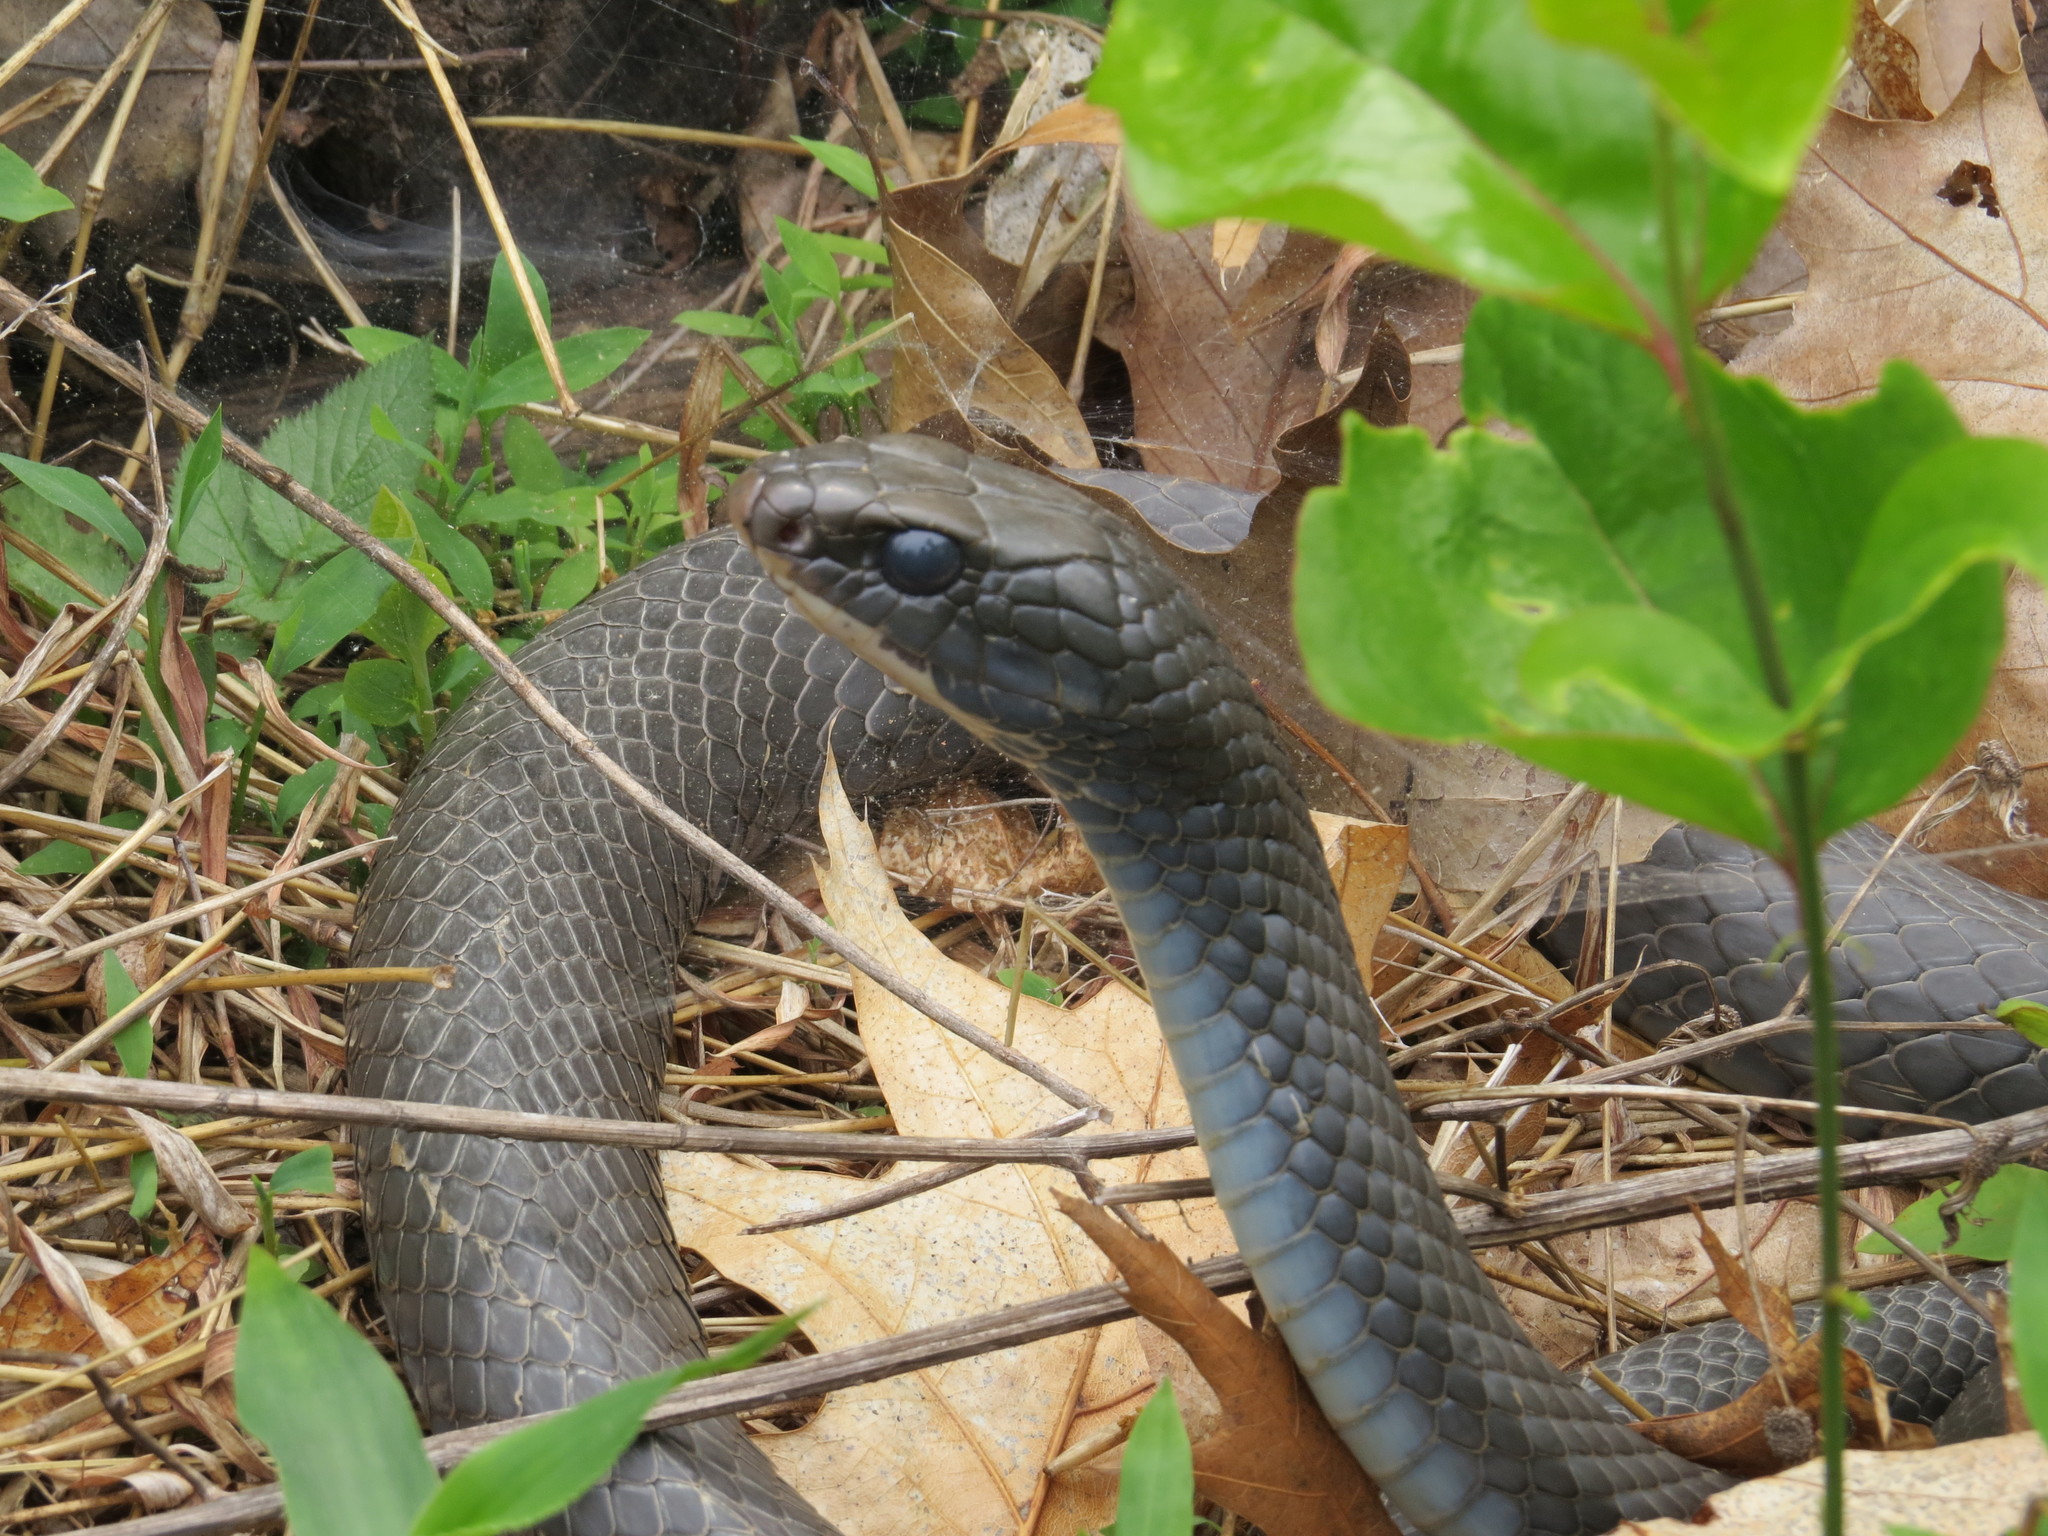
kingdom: Animalia
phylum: Chordata
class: Squamata
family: Colubridae
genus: Coluber
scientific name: Coluber constrictor
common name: Eastern racer
